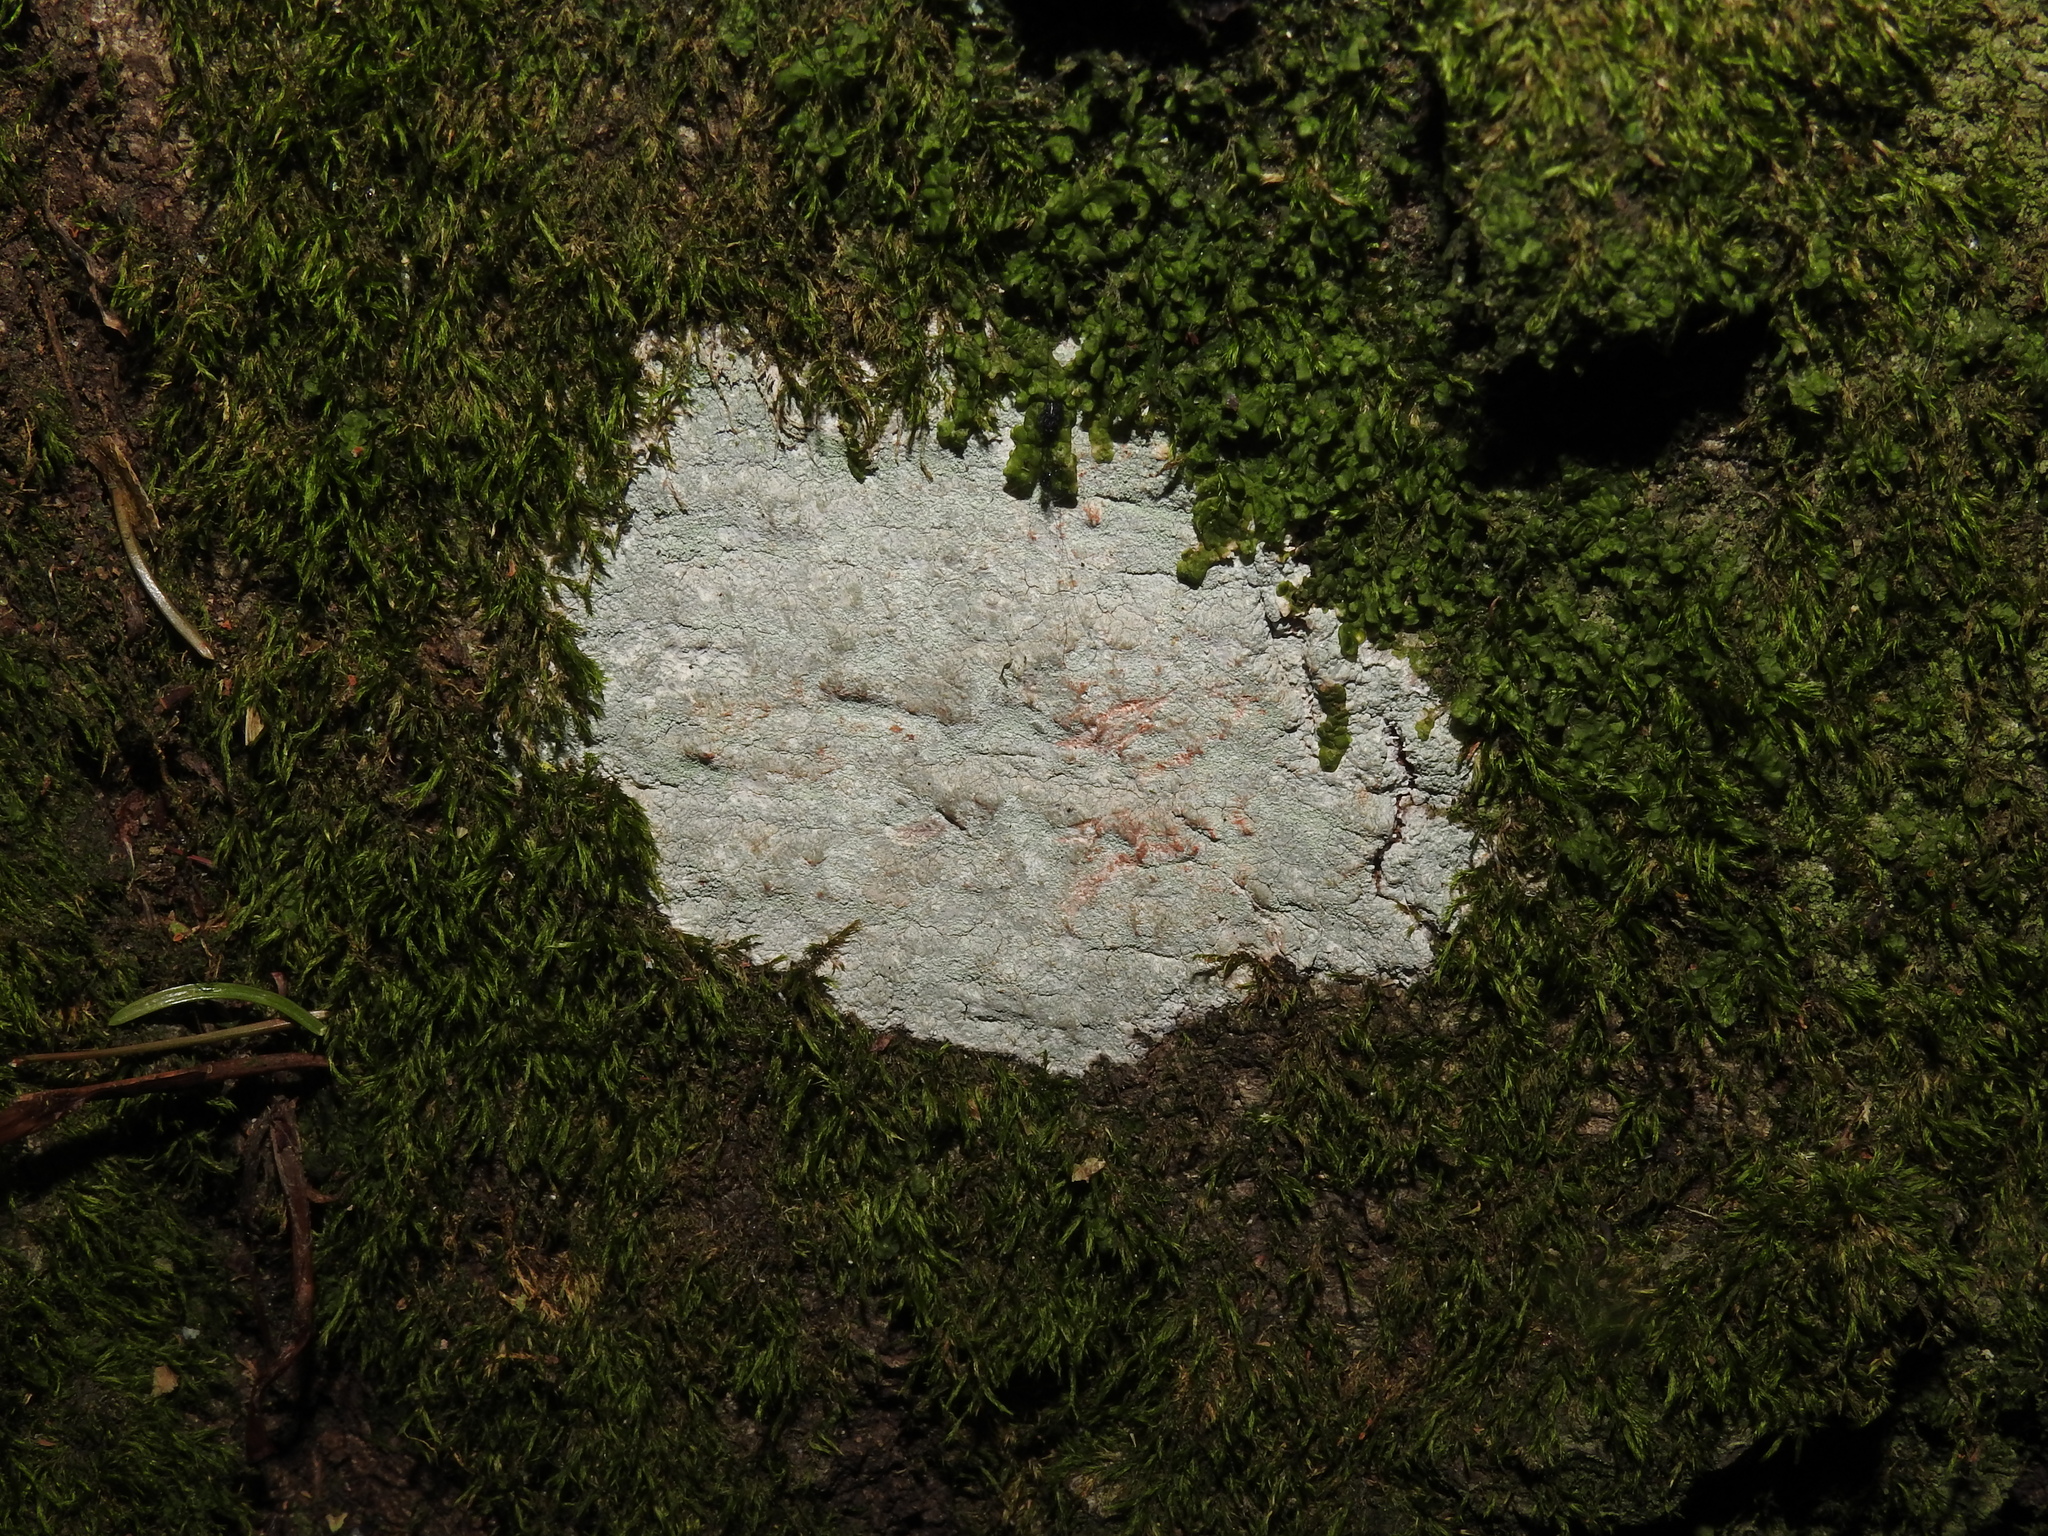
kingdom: Fungi
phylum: Ascomycota
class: Lecanoromycetes
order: Ostropales
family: Phlyctidaceae
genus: Phlyctis
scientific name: Phlyctis argena
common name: Whitewash lichen
